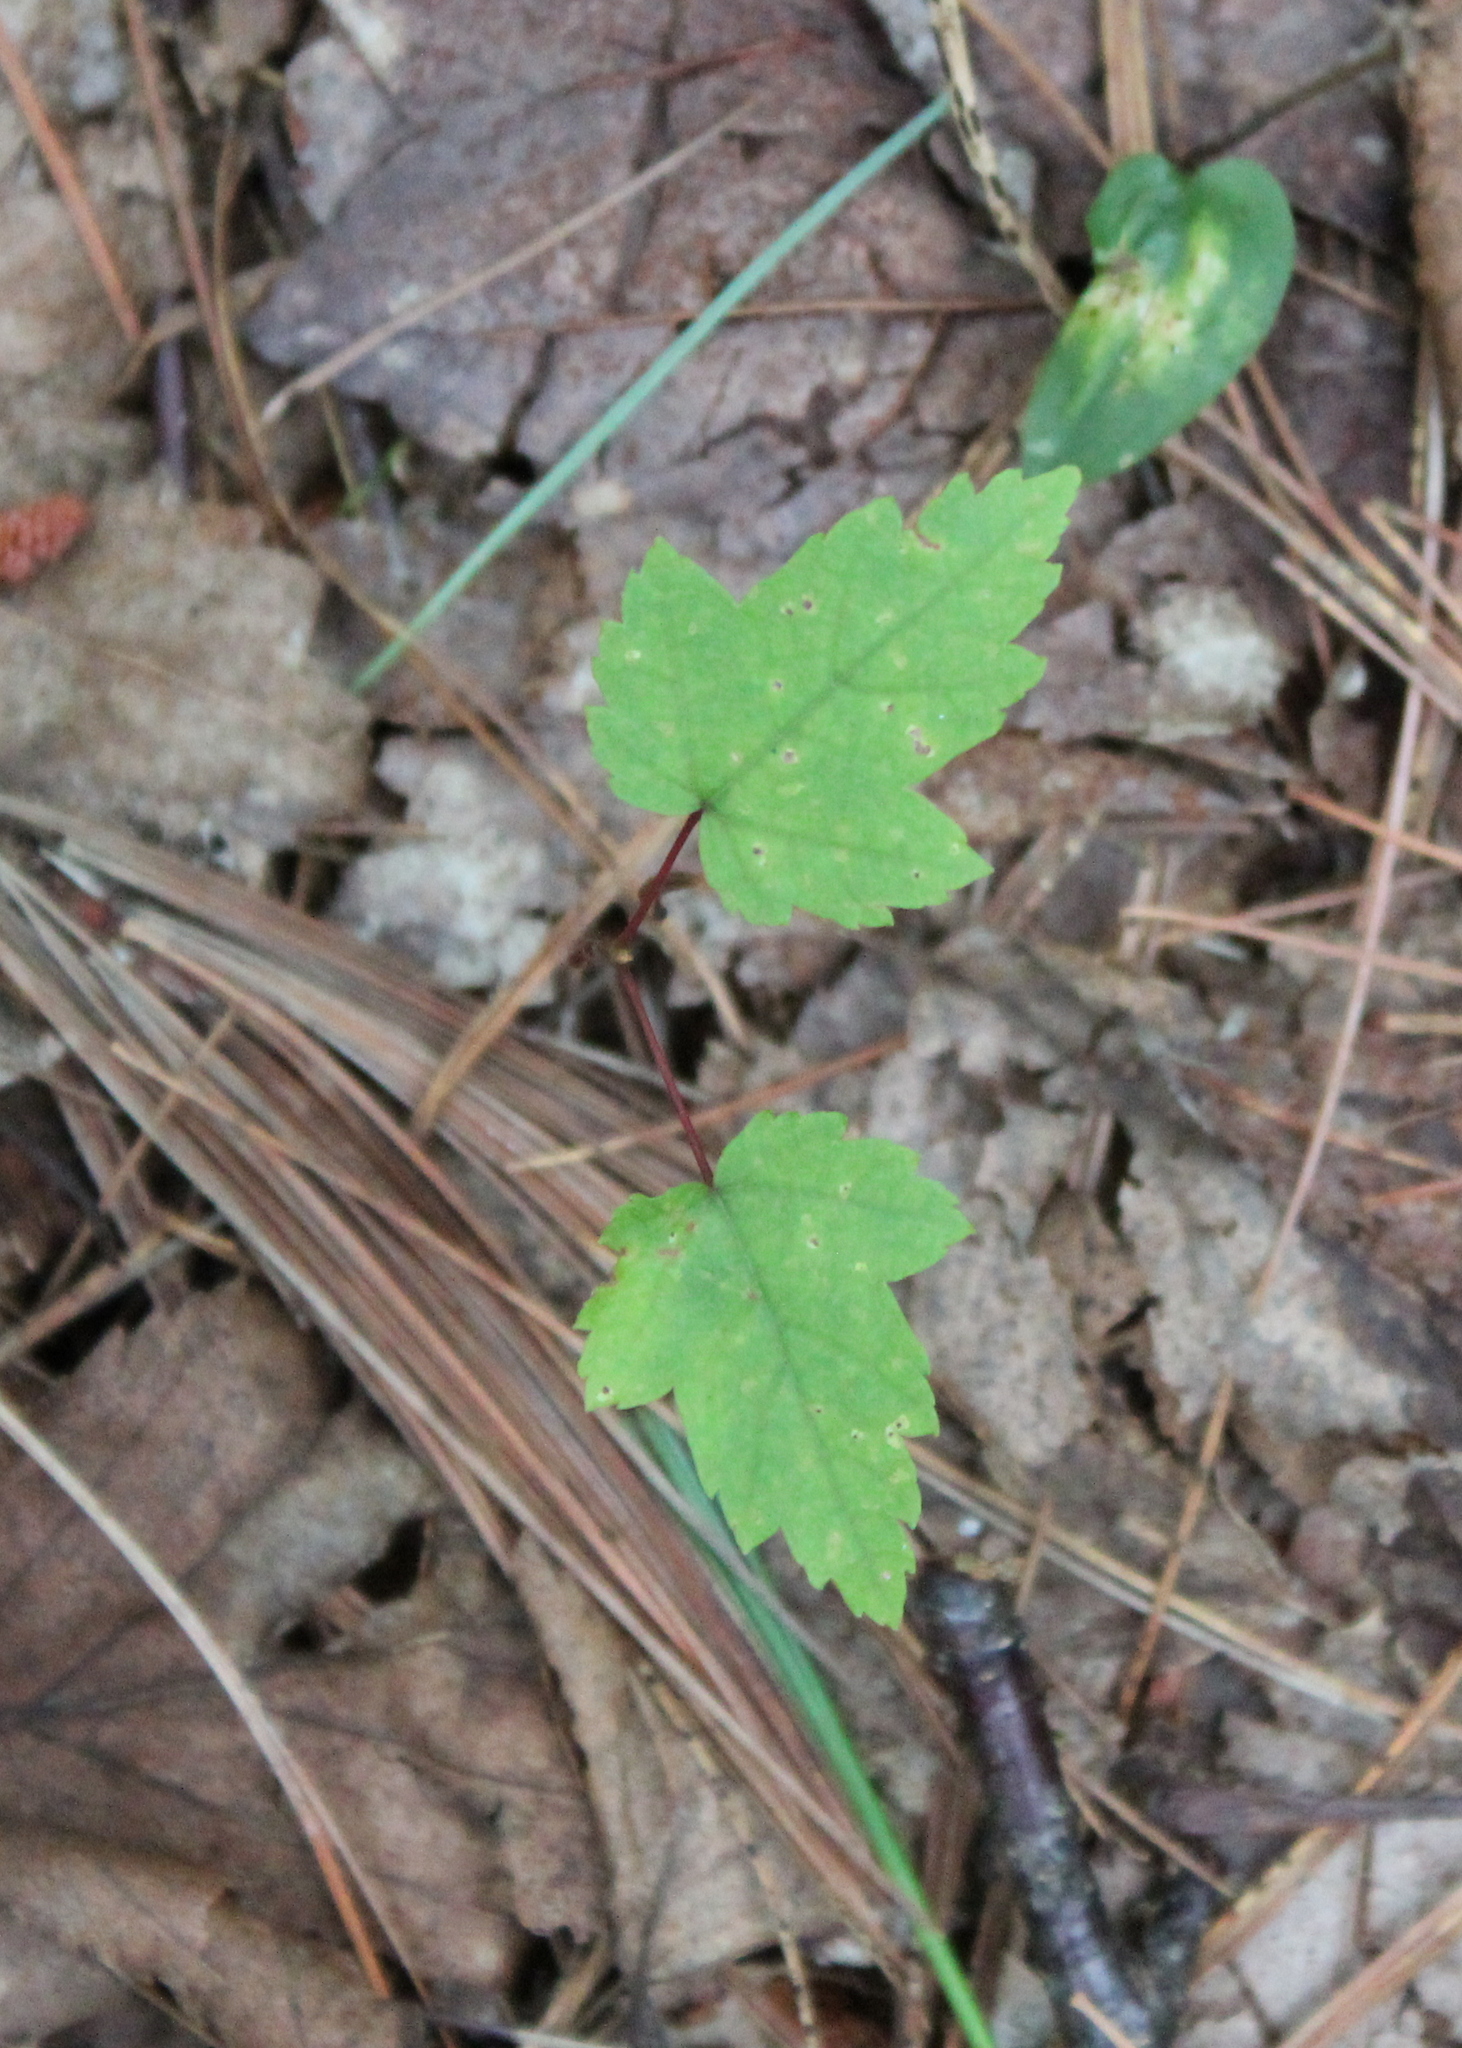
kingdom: Plantae
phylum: Tracheophyta
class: Magnoliopsida
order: Sapindales
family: Sapindaceae
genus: Acer
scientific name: Acer rubrum
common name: Red maple
